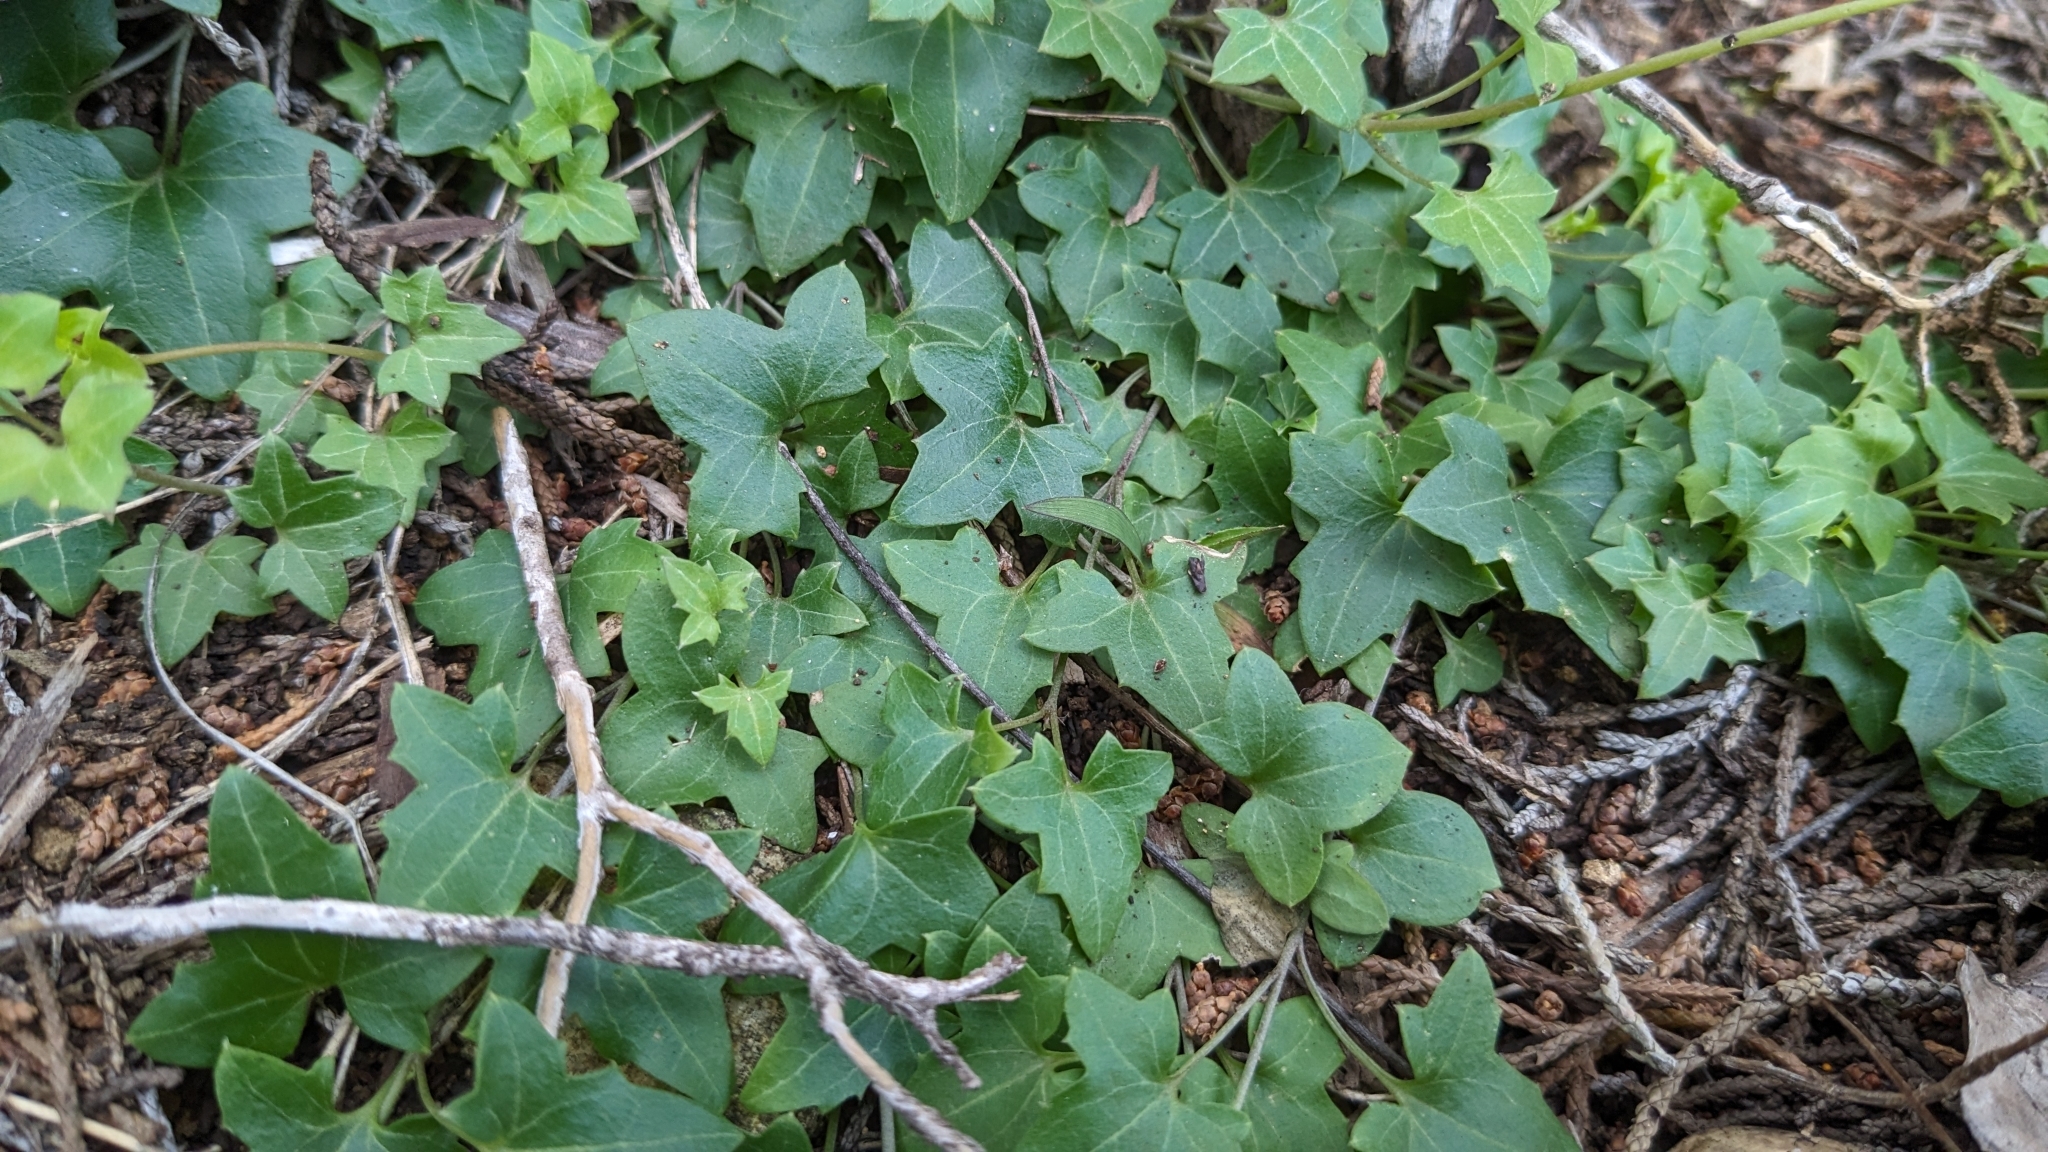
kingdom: Plantae
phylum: Tracheophyta
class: Magnoliopsida
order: Lamiales
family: Plantaginaceae
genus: Maurandella
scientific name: Maurandella antirrhiniflora
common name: Violet twining-snapdragon
